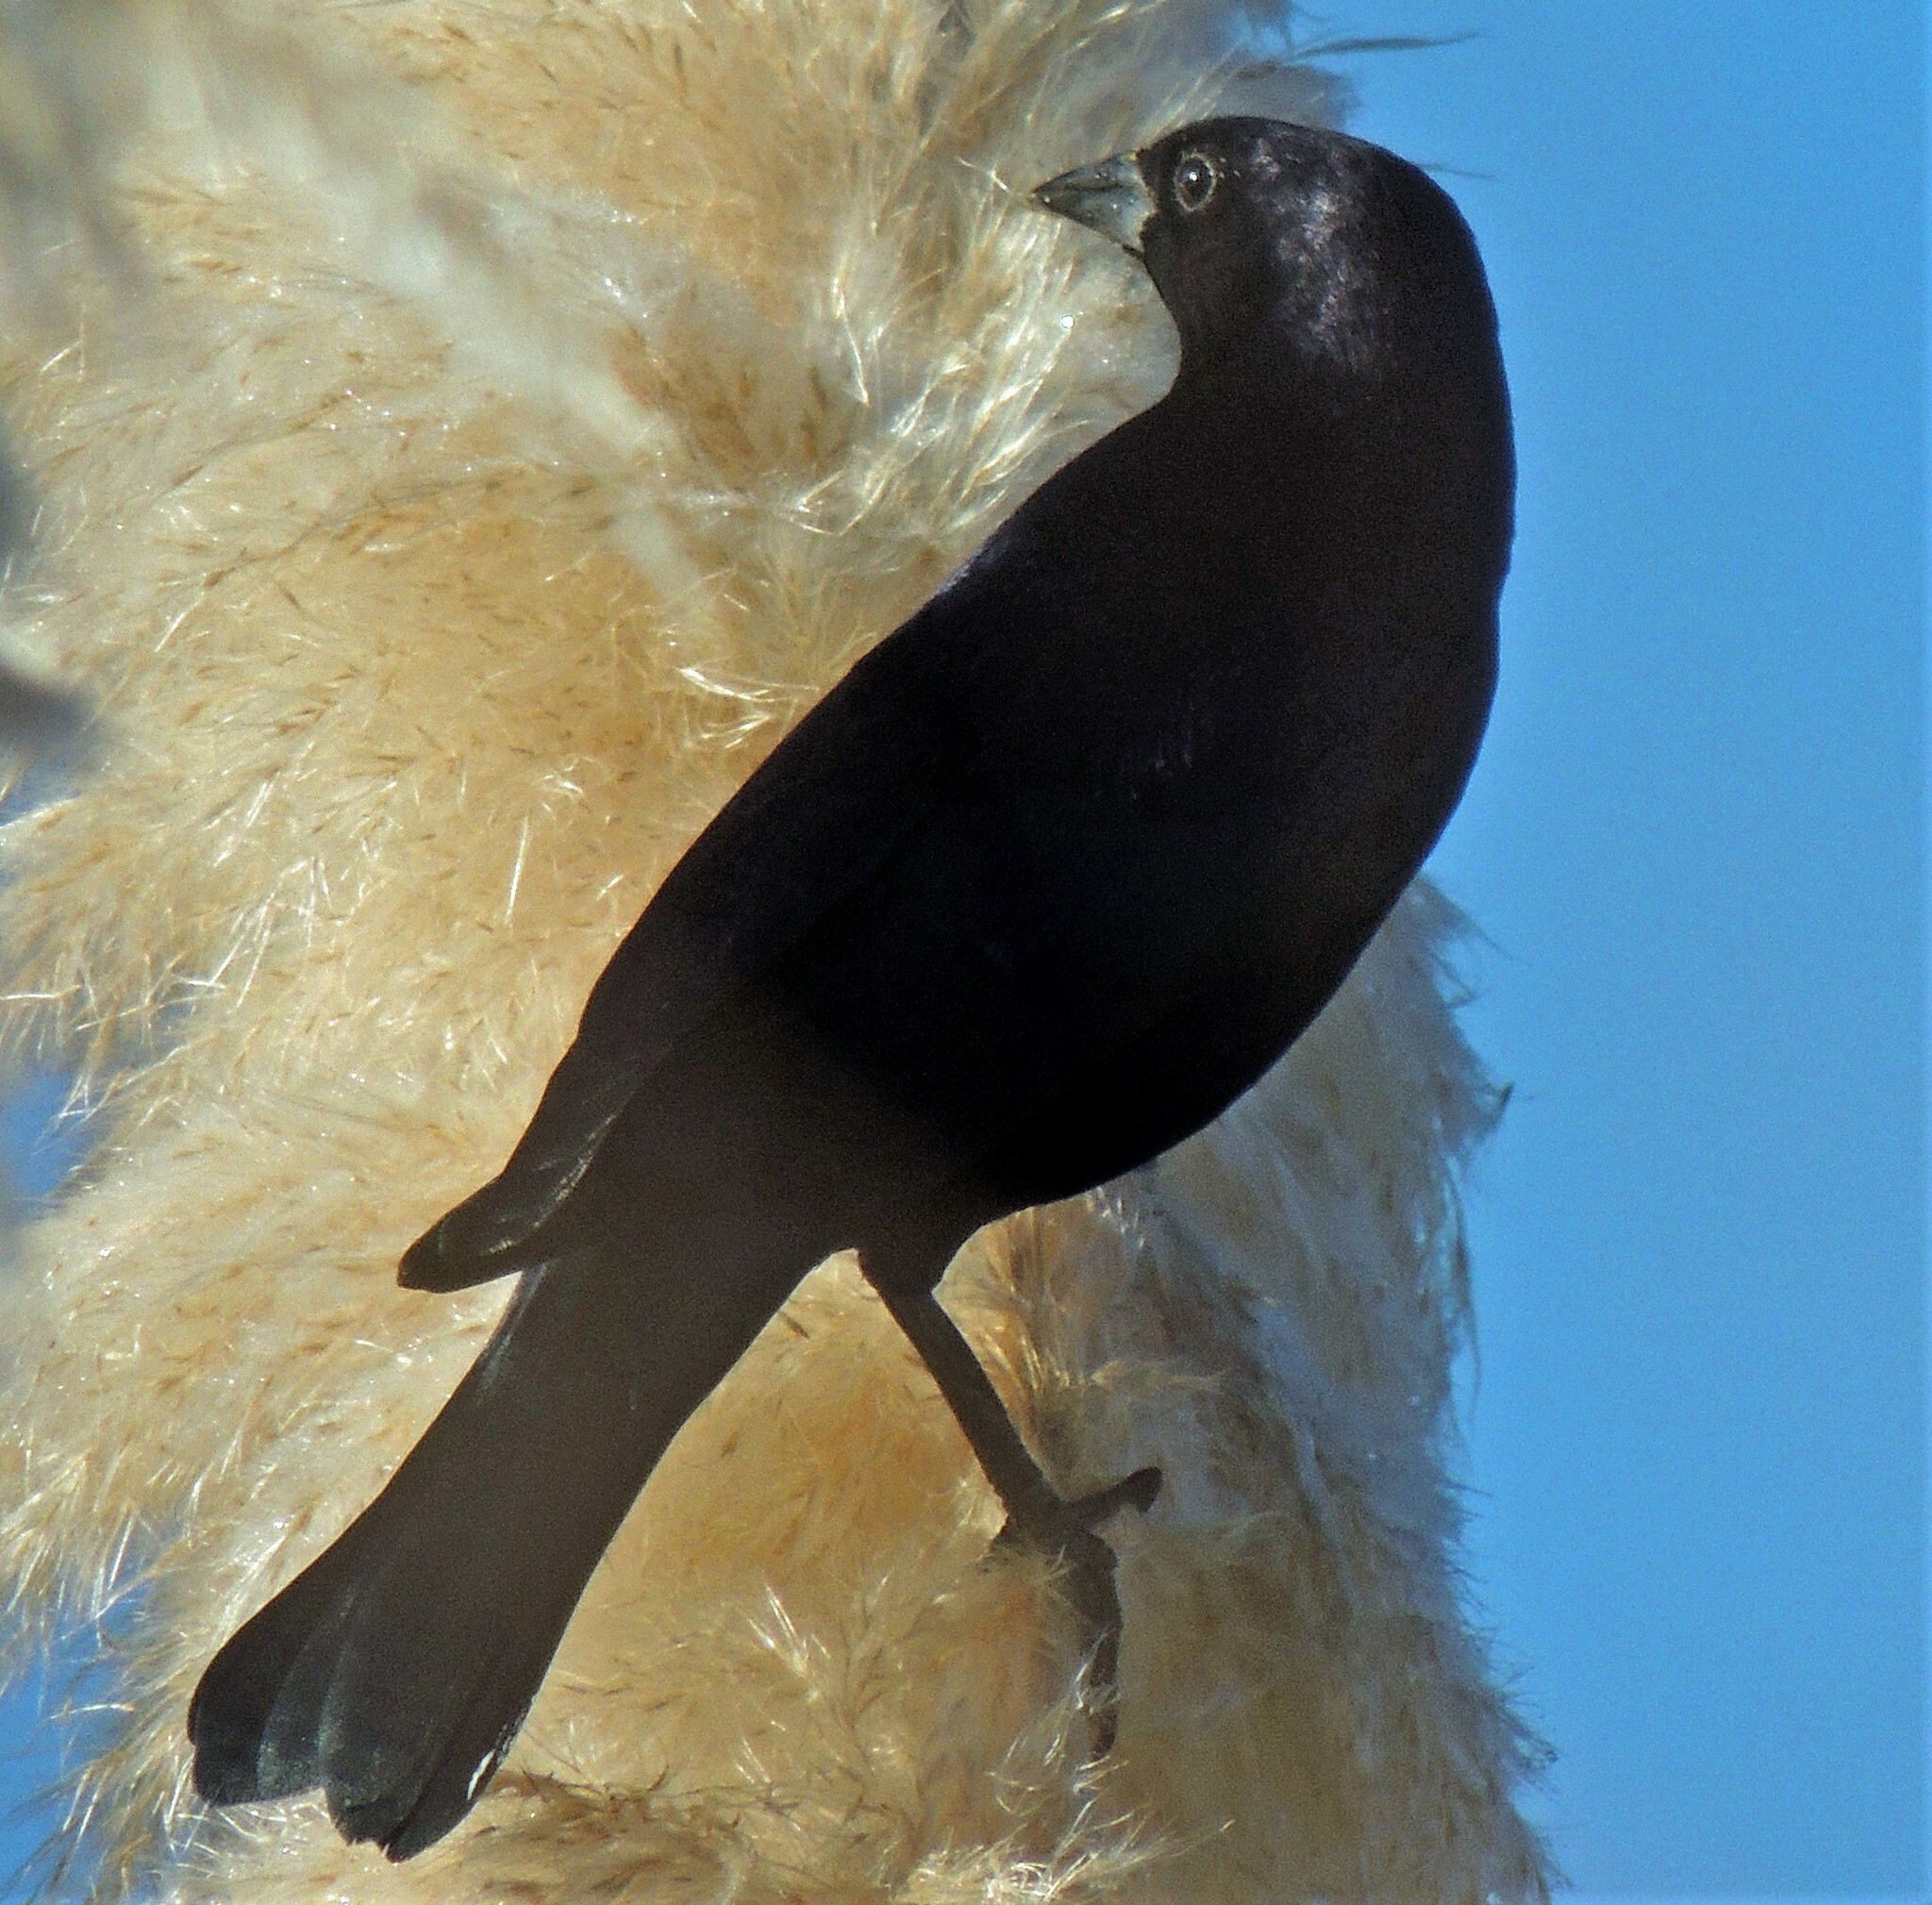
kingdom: Animalia
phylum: Chordata
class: Aves
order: Passeriformes
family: Icteridae
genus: Molothrus
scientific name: Molothrus bonariensis
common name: Shiny cowbird
